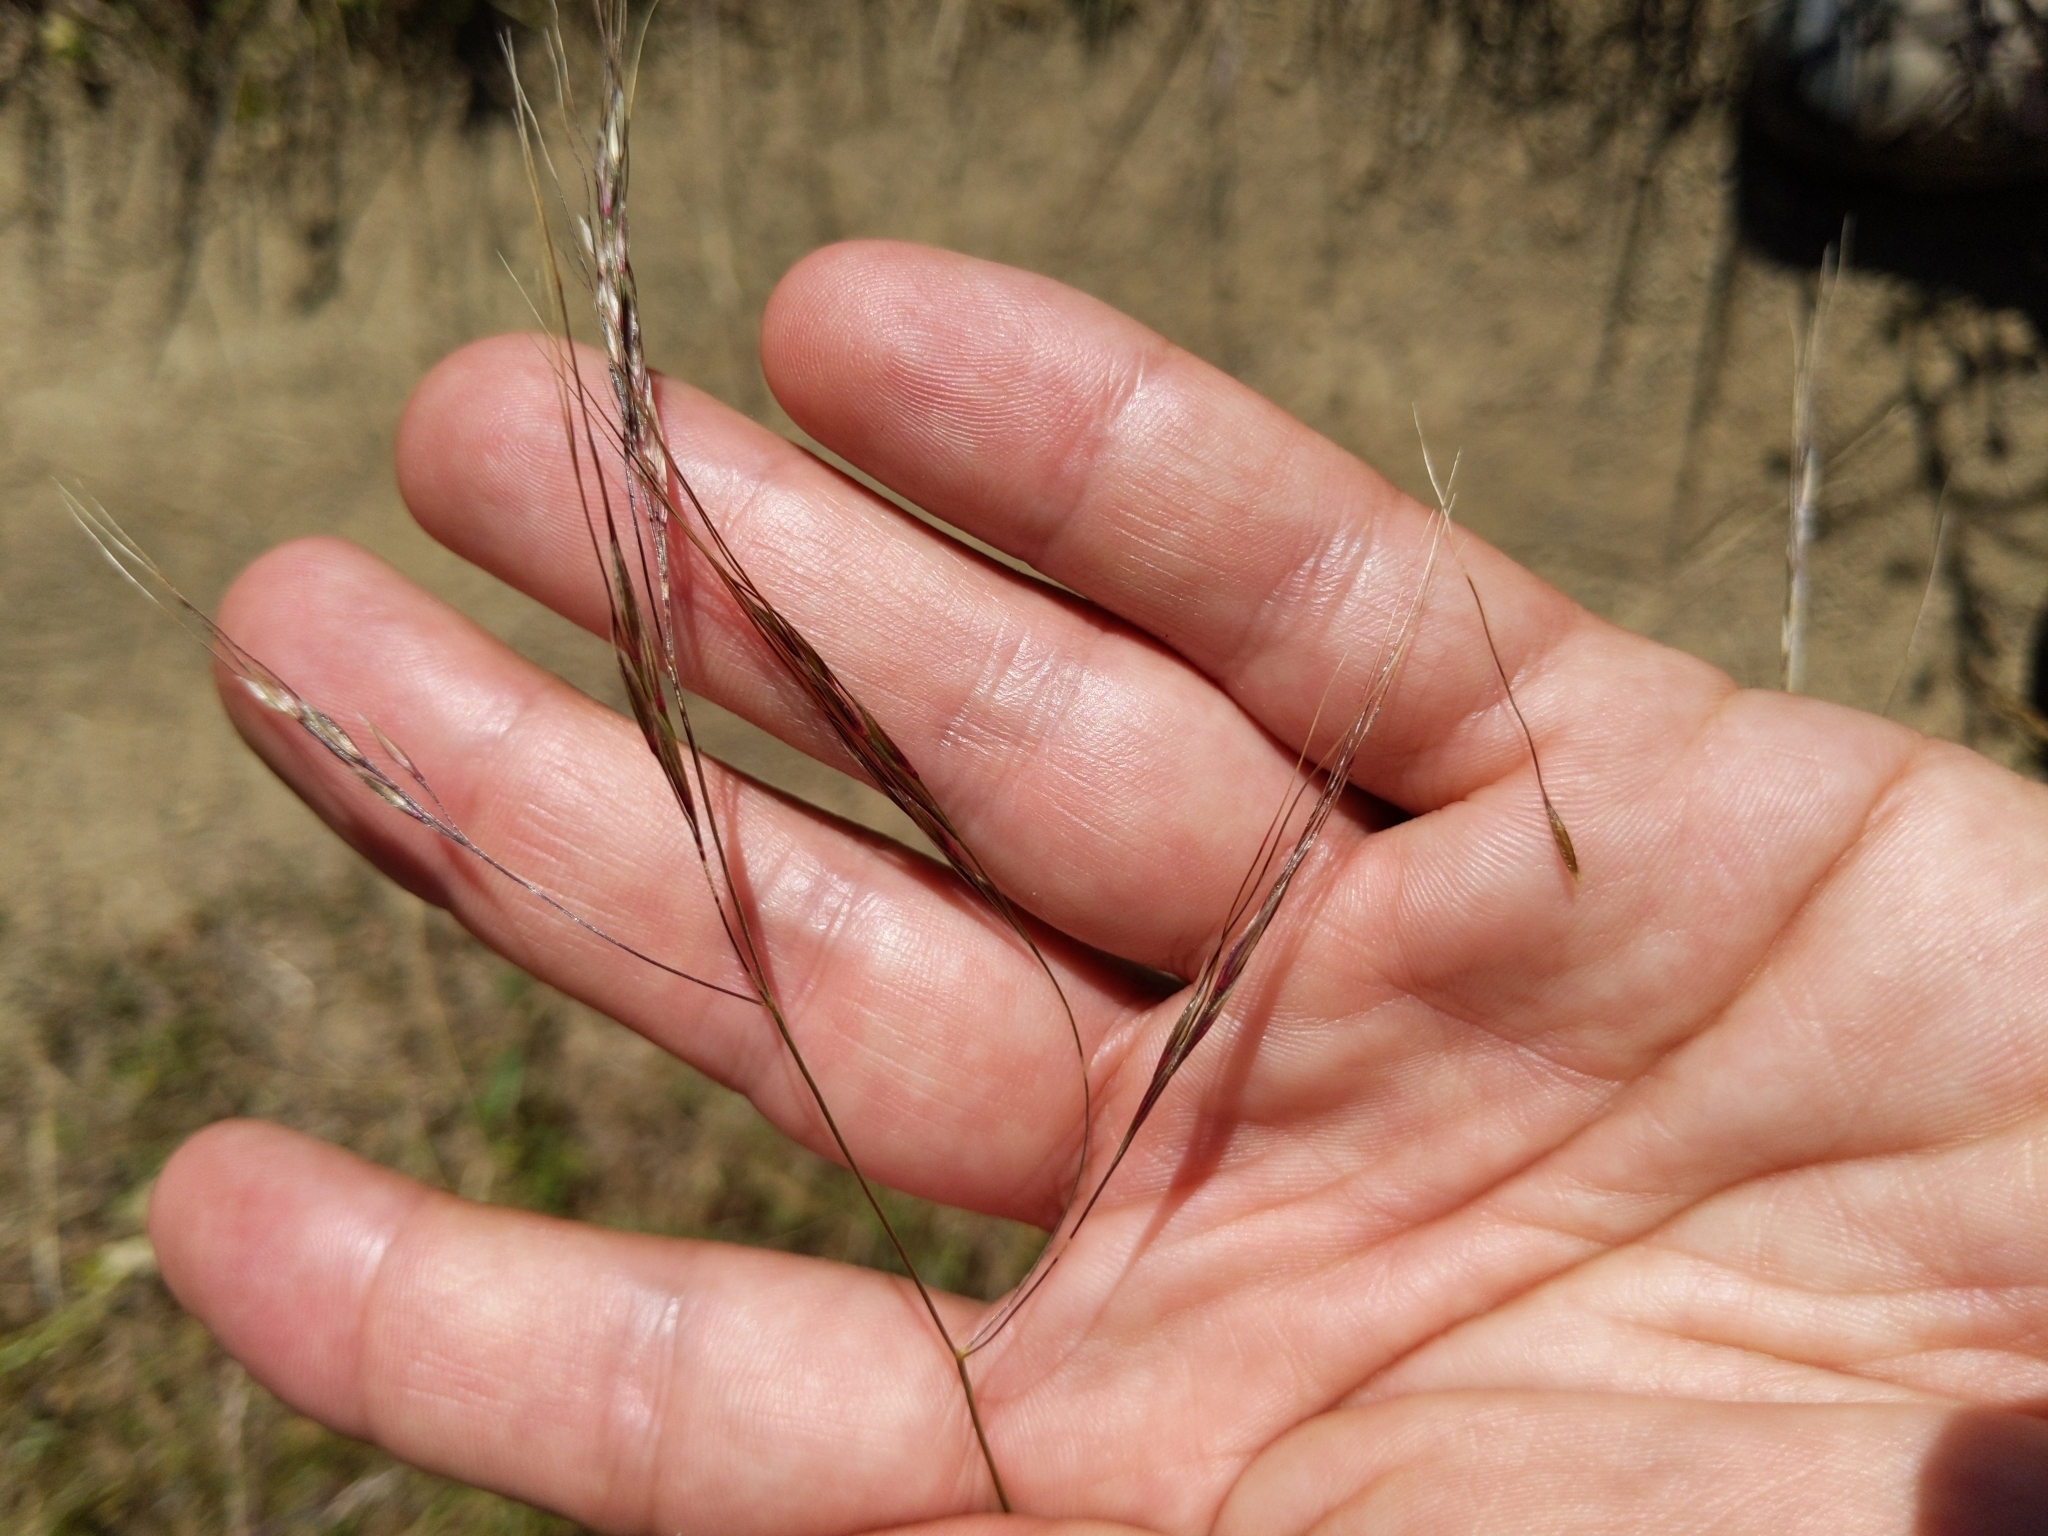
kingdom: Plantae
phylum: Tracheophyta
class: Liliopsida
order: Poales
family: Poaceae
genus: Nassella
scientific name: Nassella lepida
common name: Foothill needlegrass
